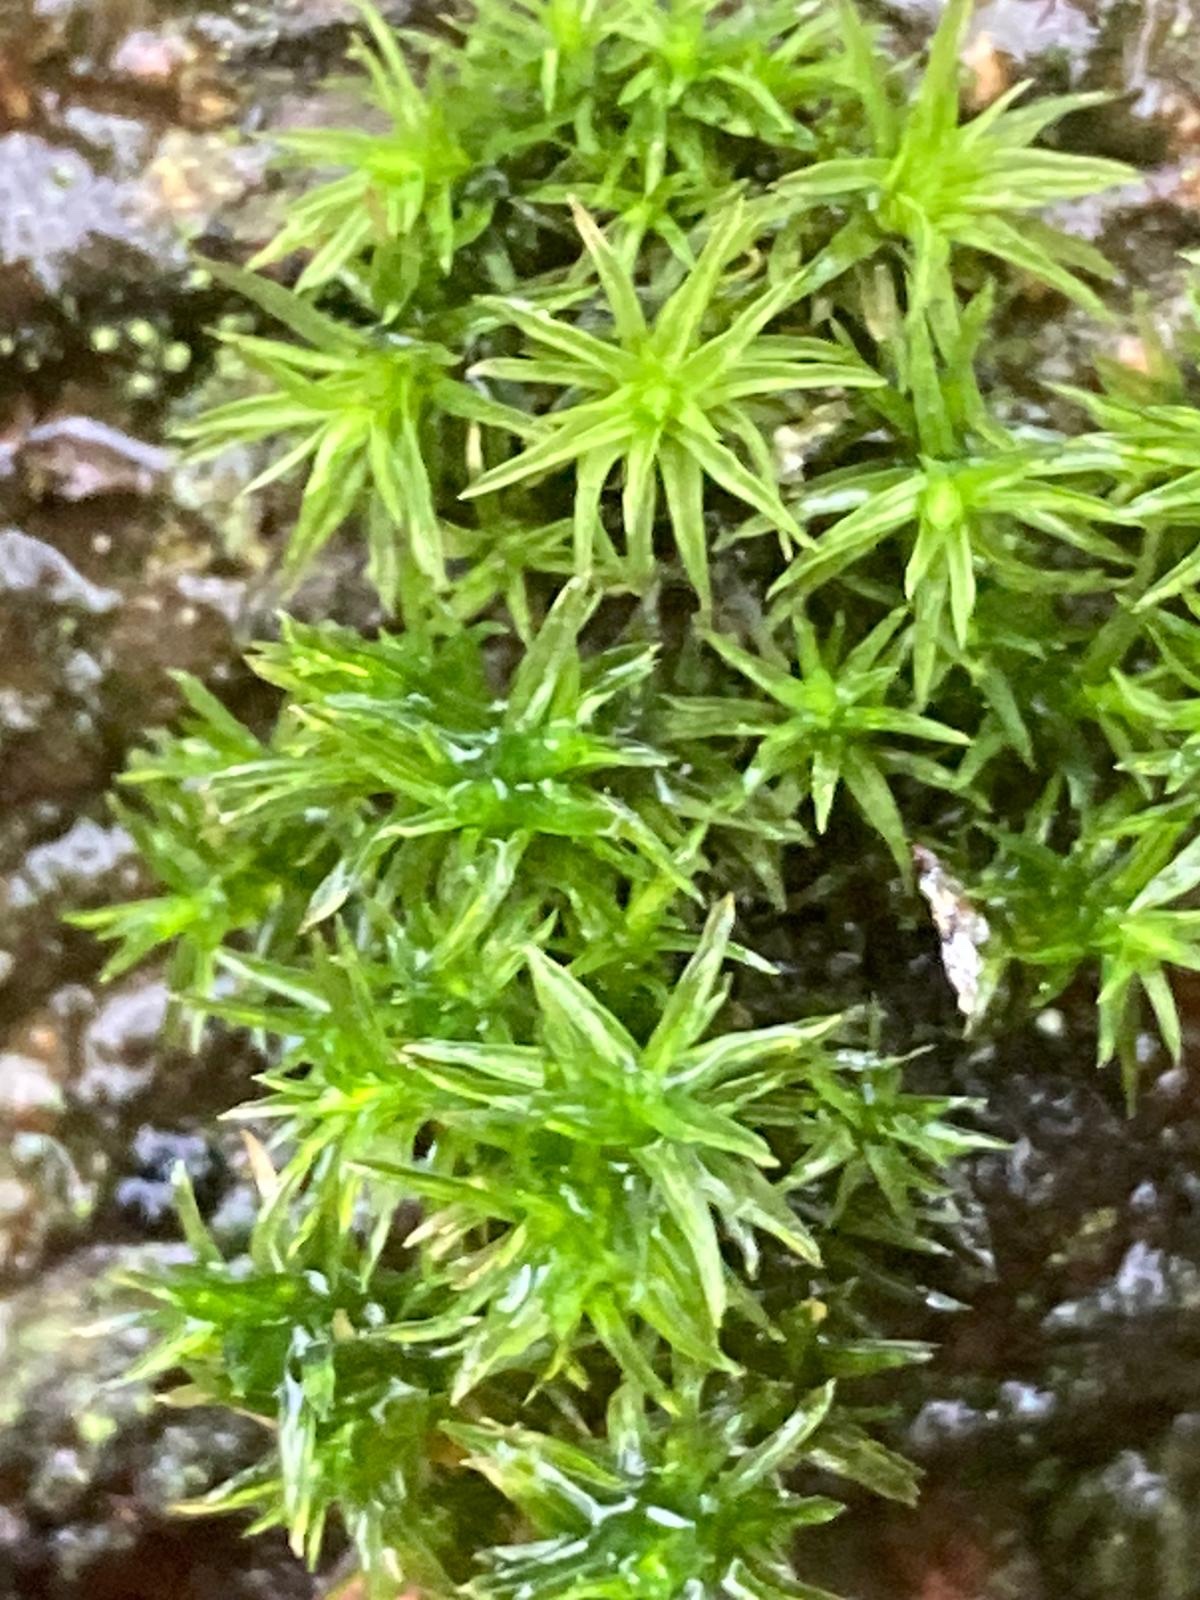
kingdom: Plantae
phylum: Bryophyta
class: Bryopsida
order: Orthotrichales
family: Orthotrichaceae
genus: Lewinskya
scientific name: Lewinskya affinis
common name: Wood bristle-moss
